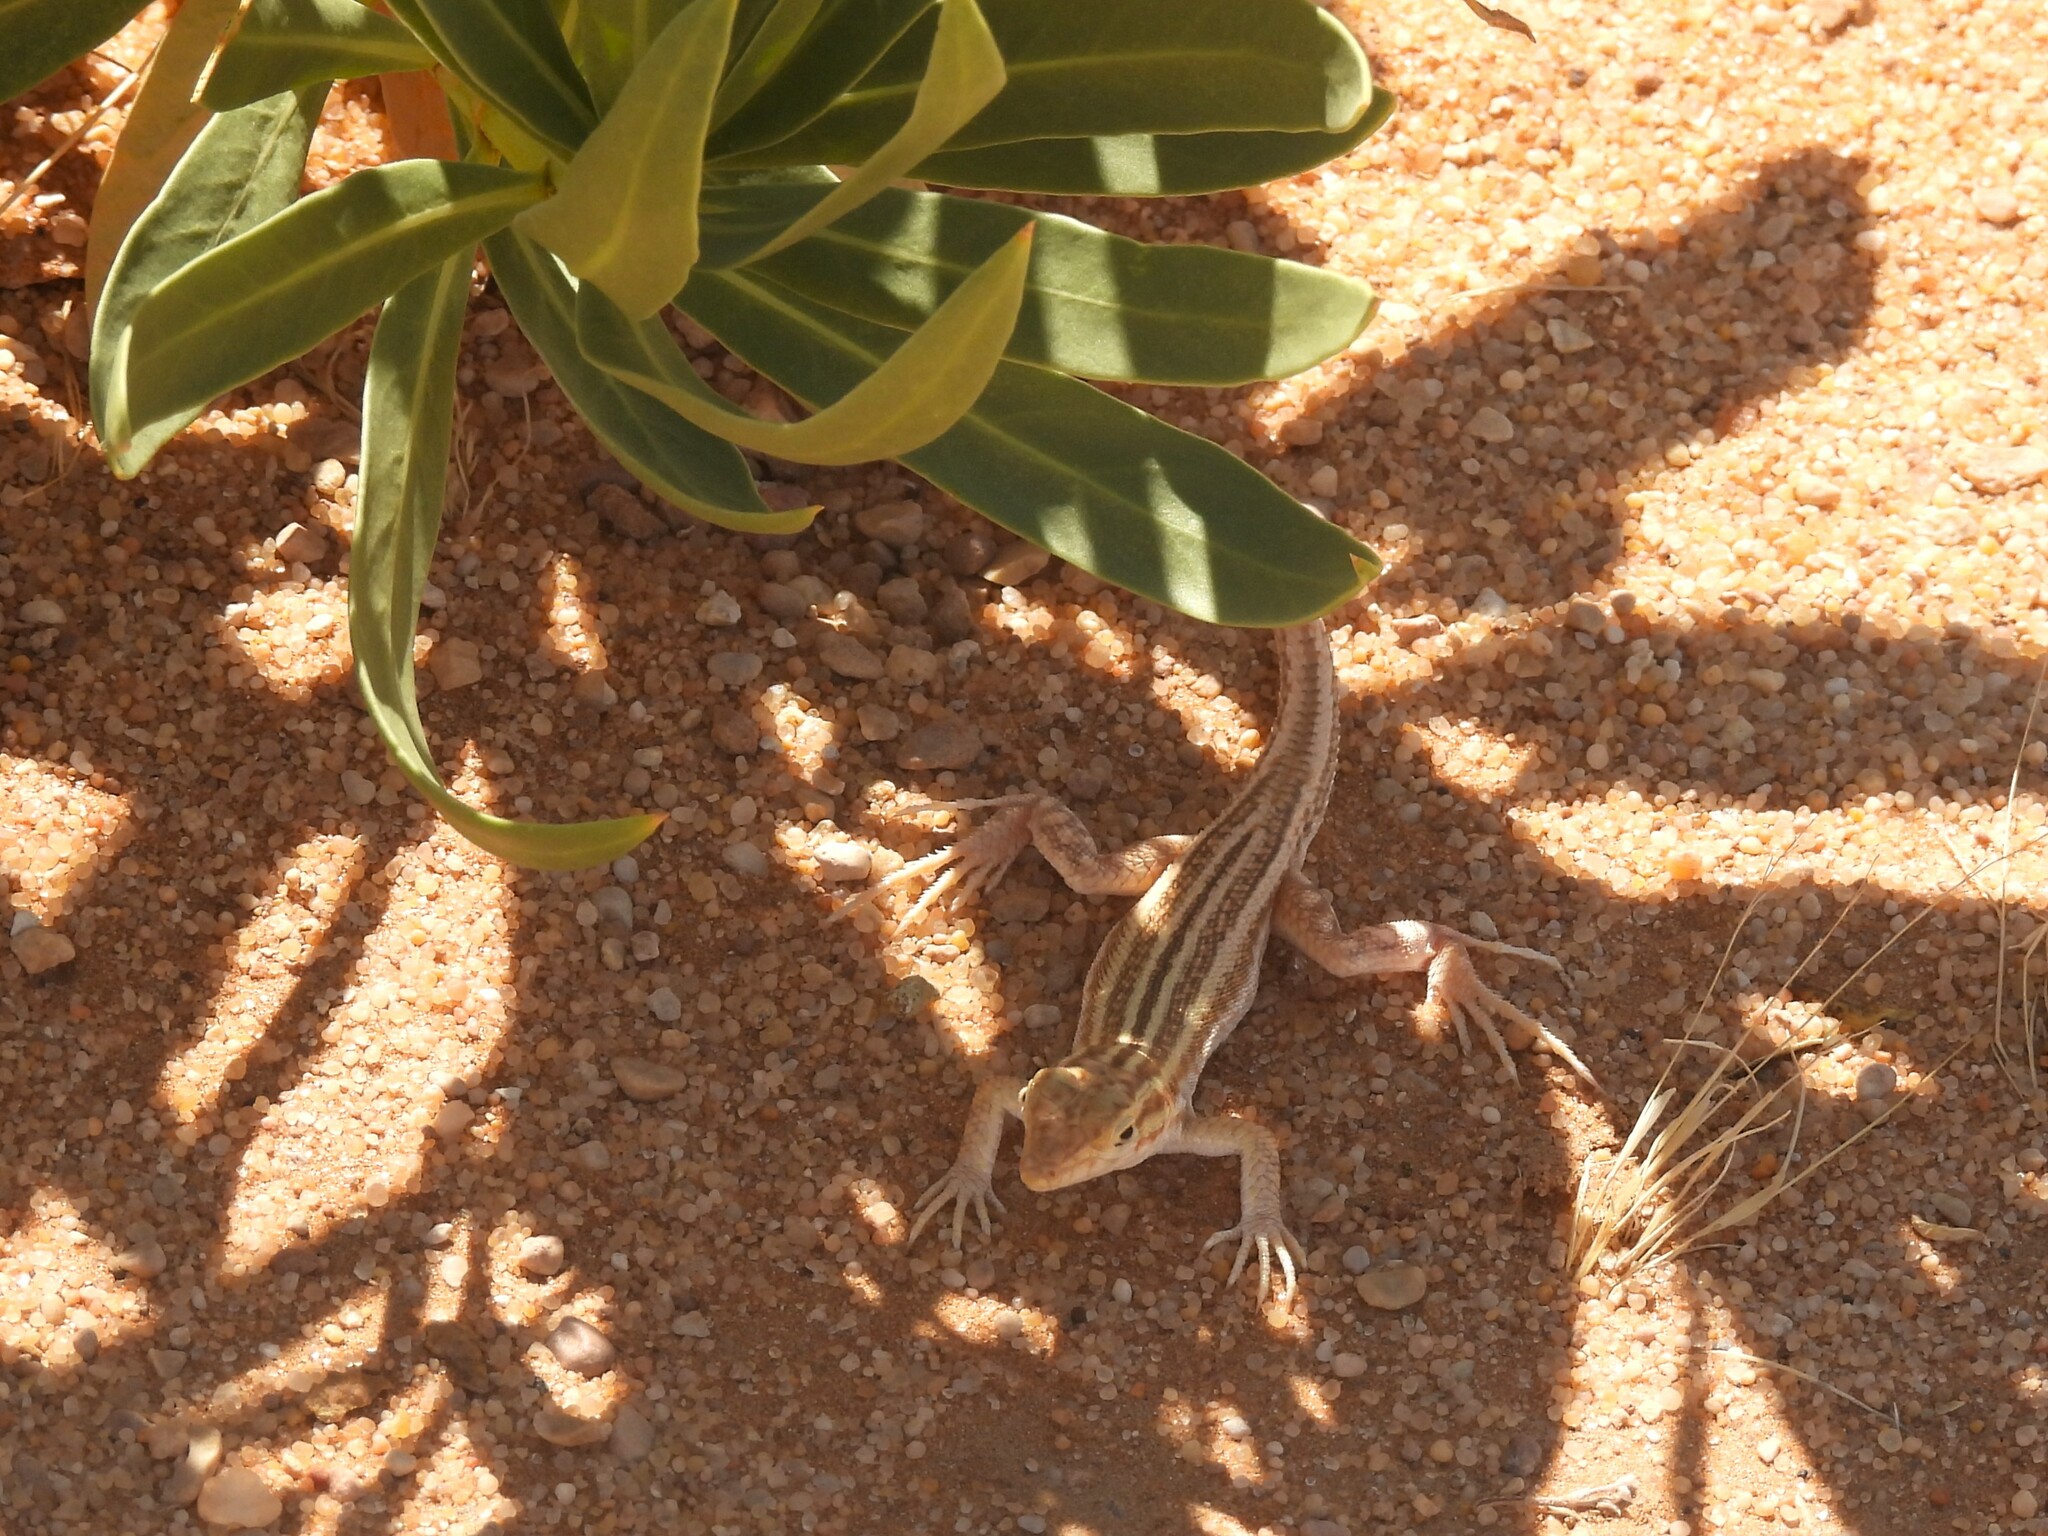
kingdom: Animalia
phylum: Chordata
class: Squamata
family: Lacertidae
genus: Acanthodactylus
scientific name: Acanthodactylus opheodurus
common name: Arnold's fringe-fingered lizard
